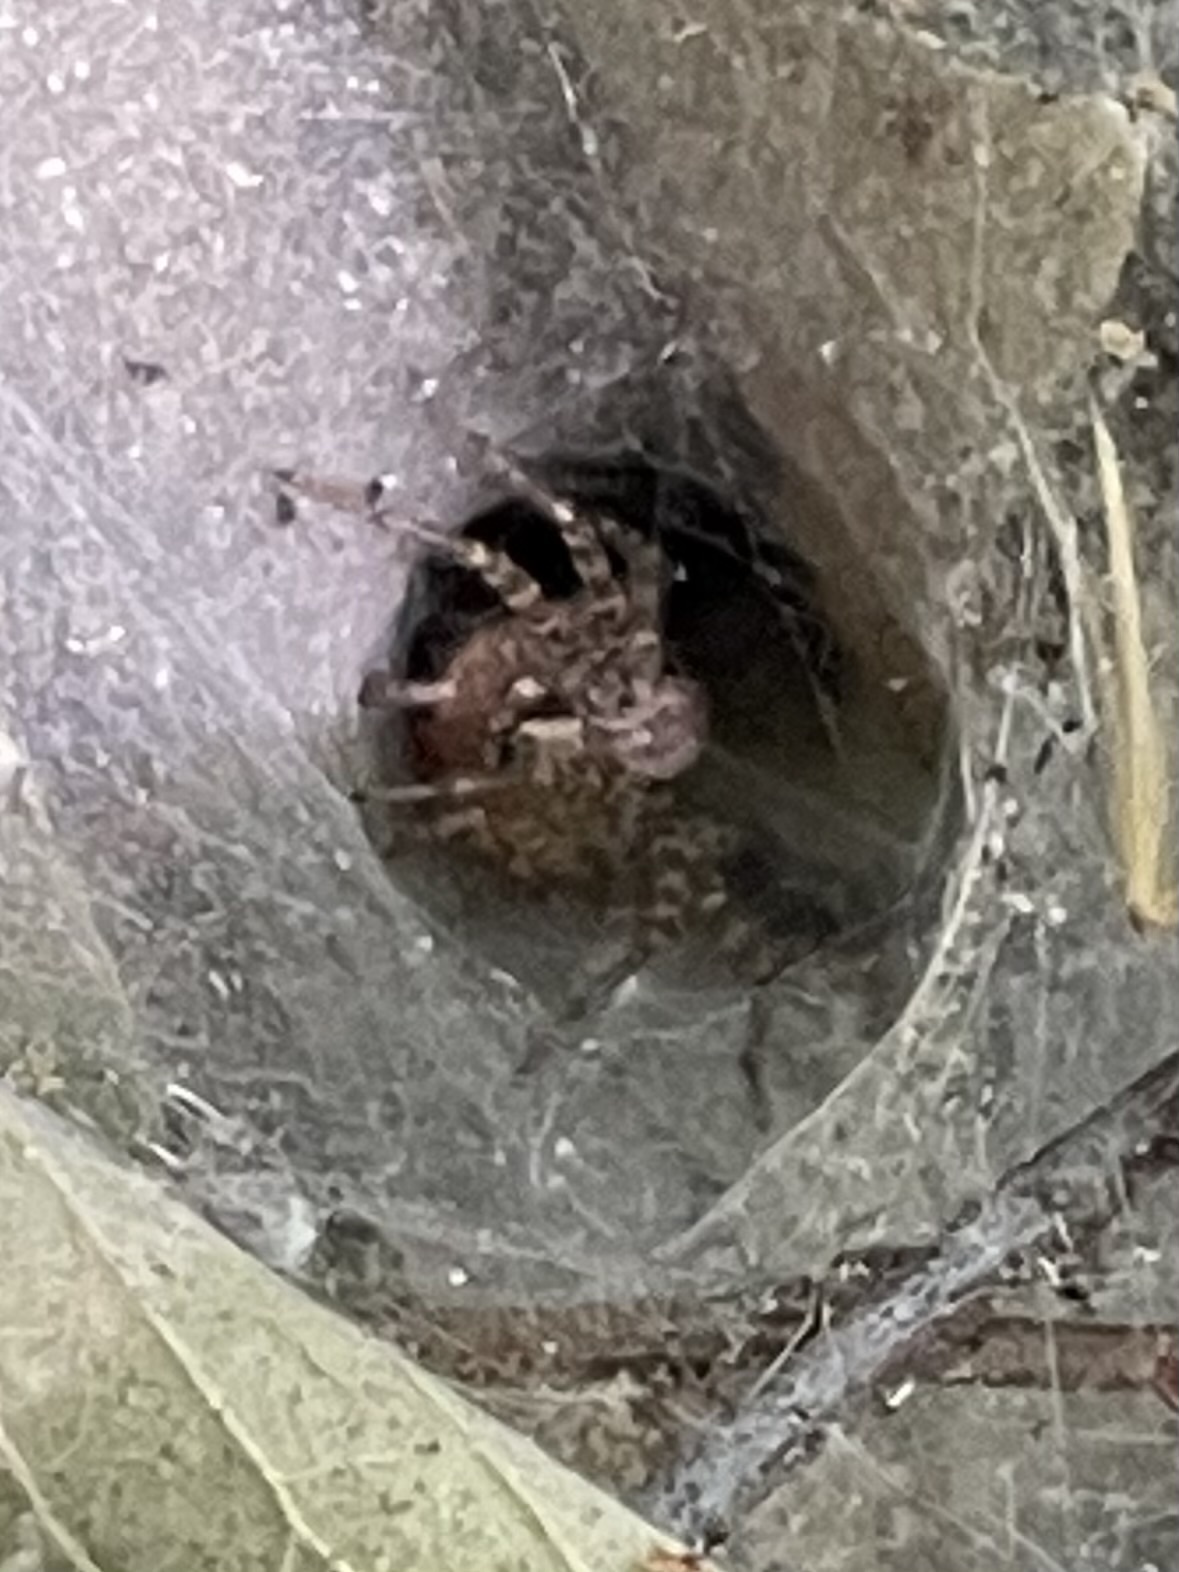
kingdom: Animalia
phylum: Arthropoda
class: Arachnida
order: Araneae
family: Agelenidae
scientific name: Agelenidae
